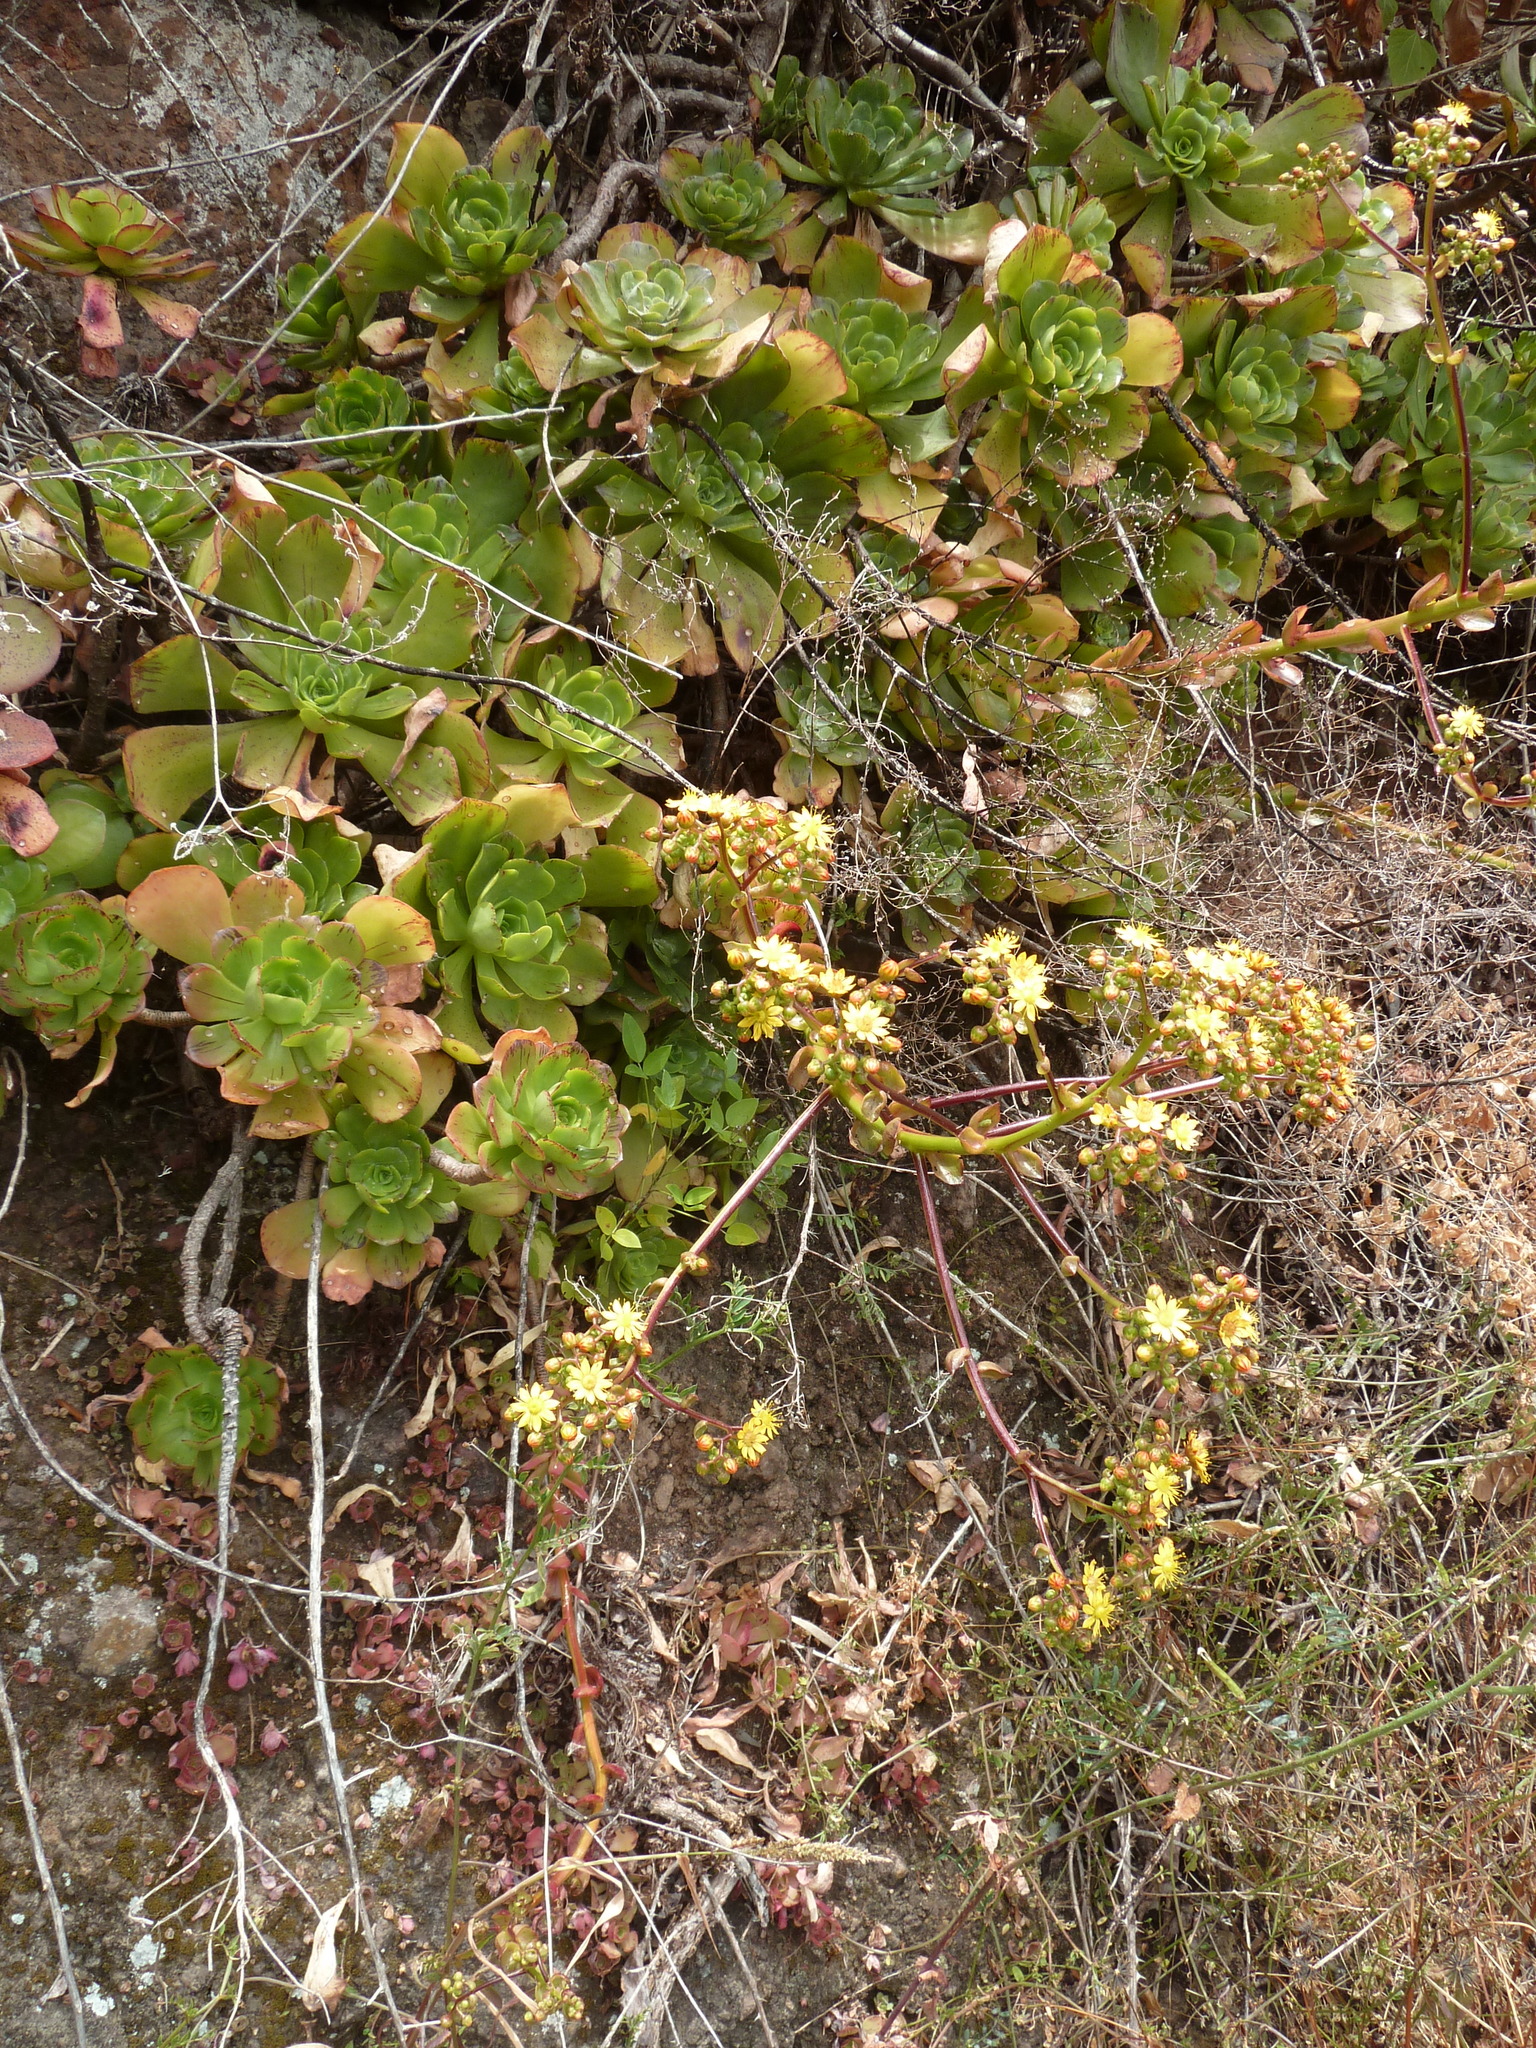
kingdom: Plantae
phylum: Tracheophyta
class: Magnoliopsida
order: Saxifragales
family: Crassulaceae
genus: Aeonium
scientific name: Aeonium glutinosum
